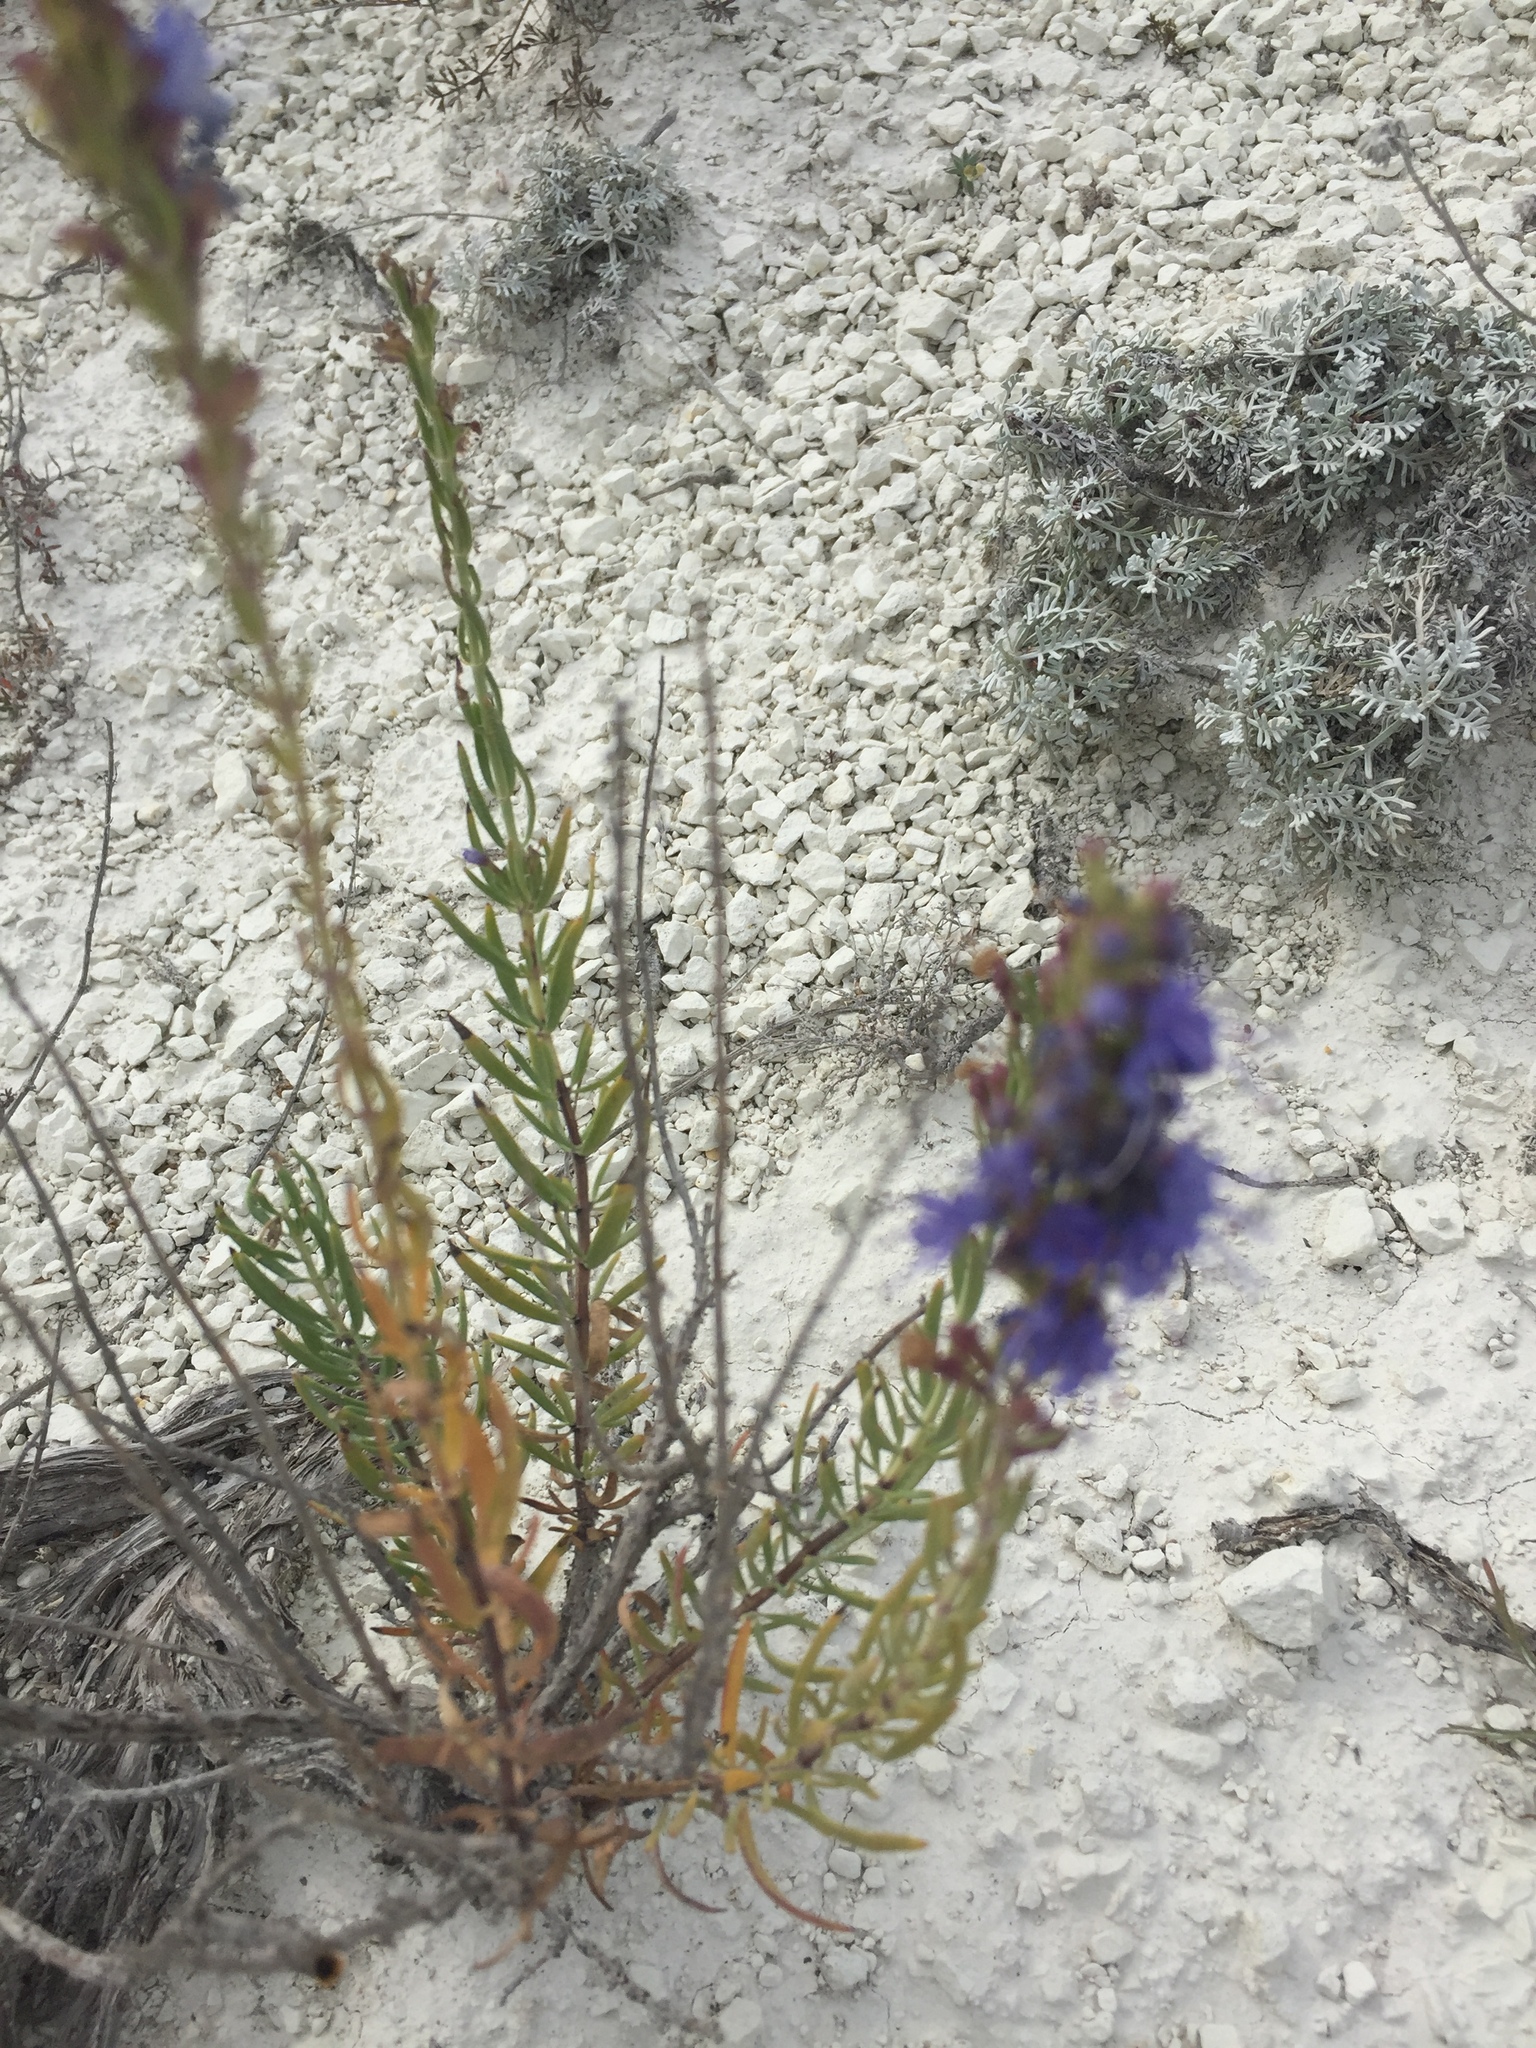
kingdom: Plantae
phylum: Tracheophyta
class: Magnoliopsida
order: Lamiales
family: Lamiaceae
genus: Hyssopus
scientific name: Hyssopus officinalis
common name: Hyssop
